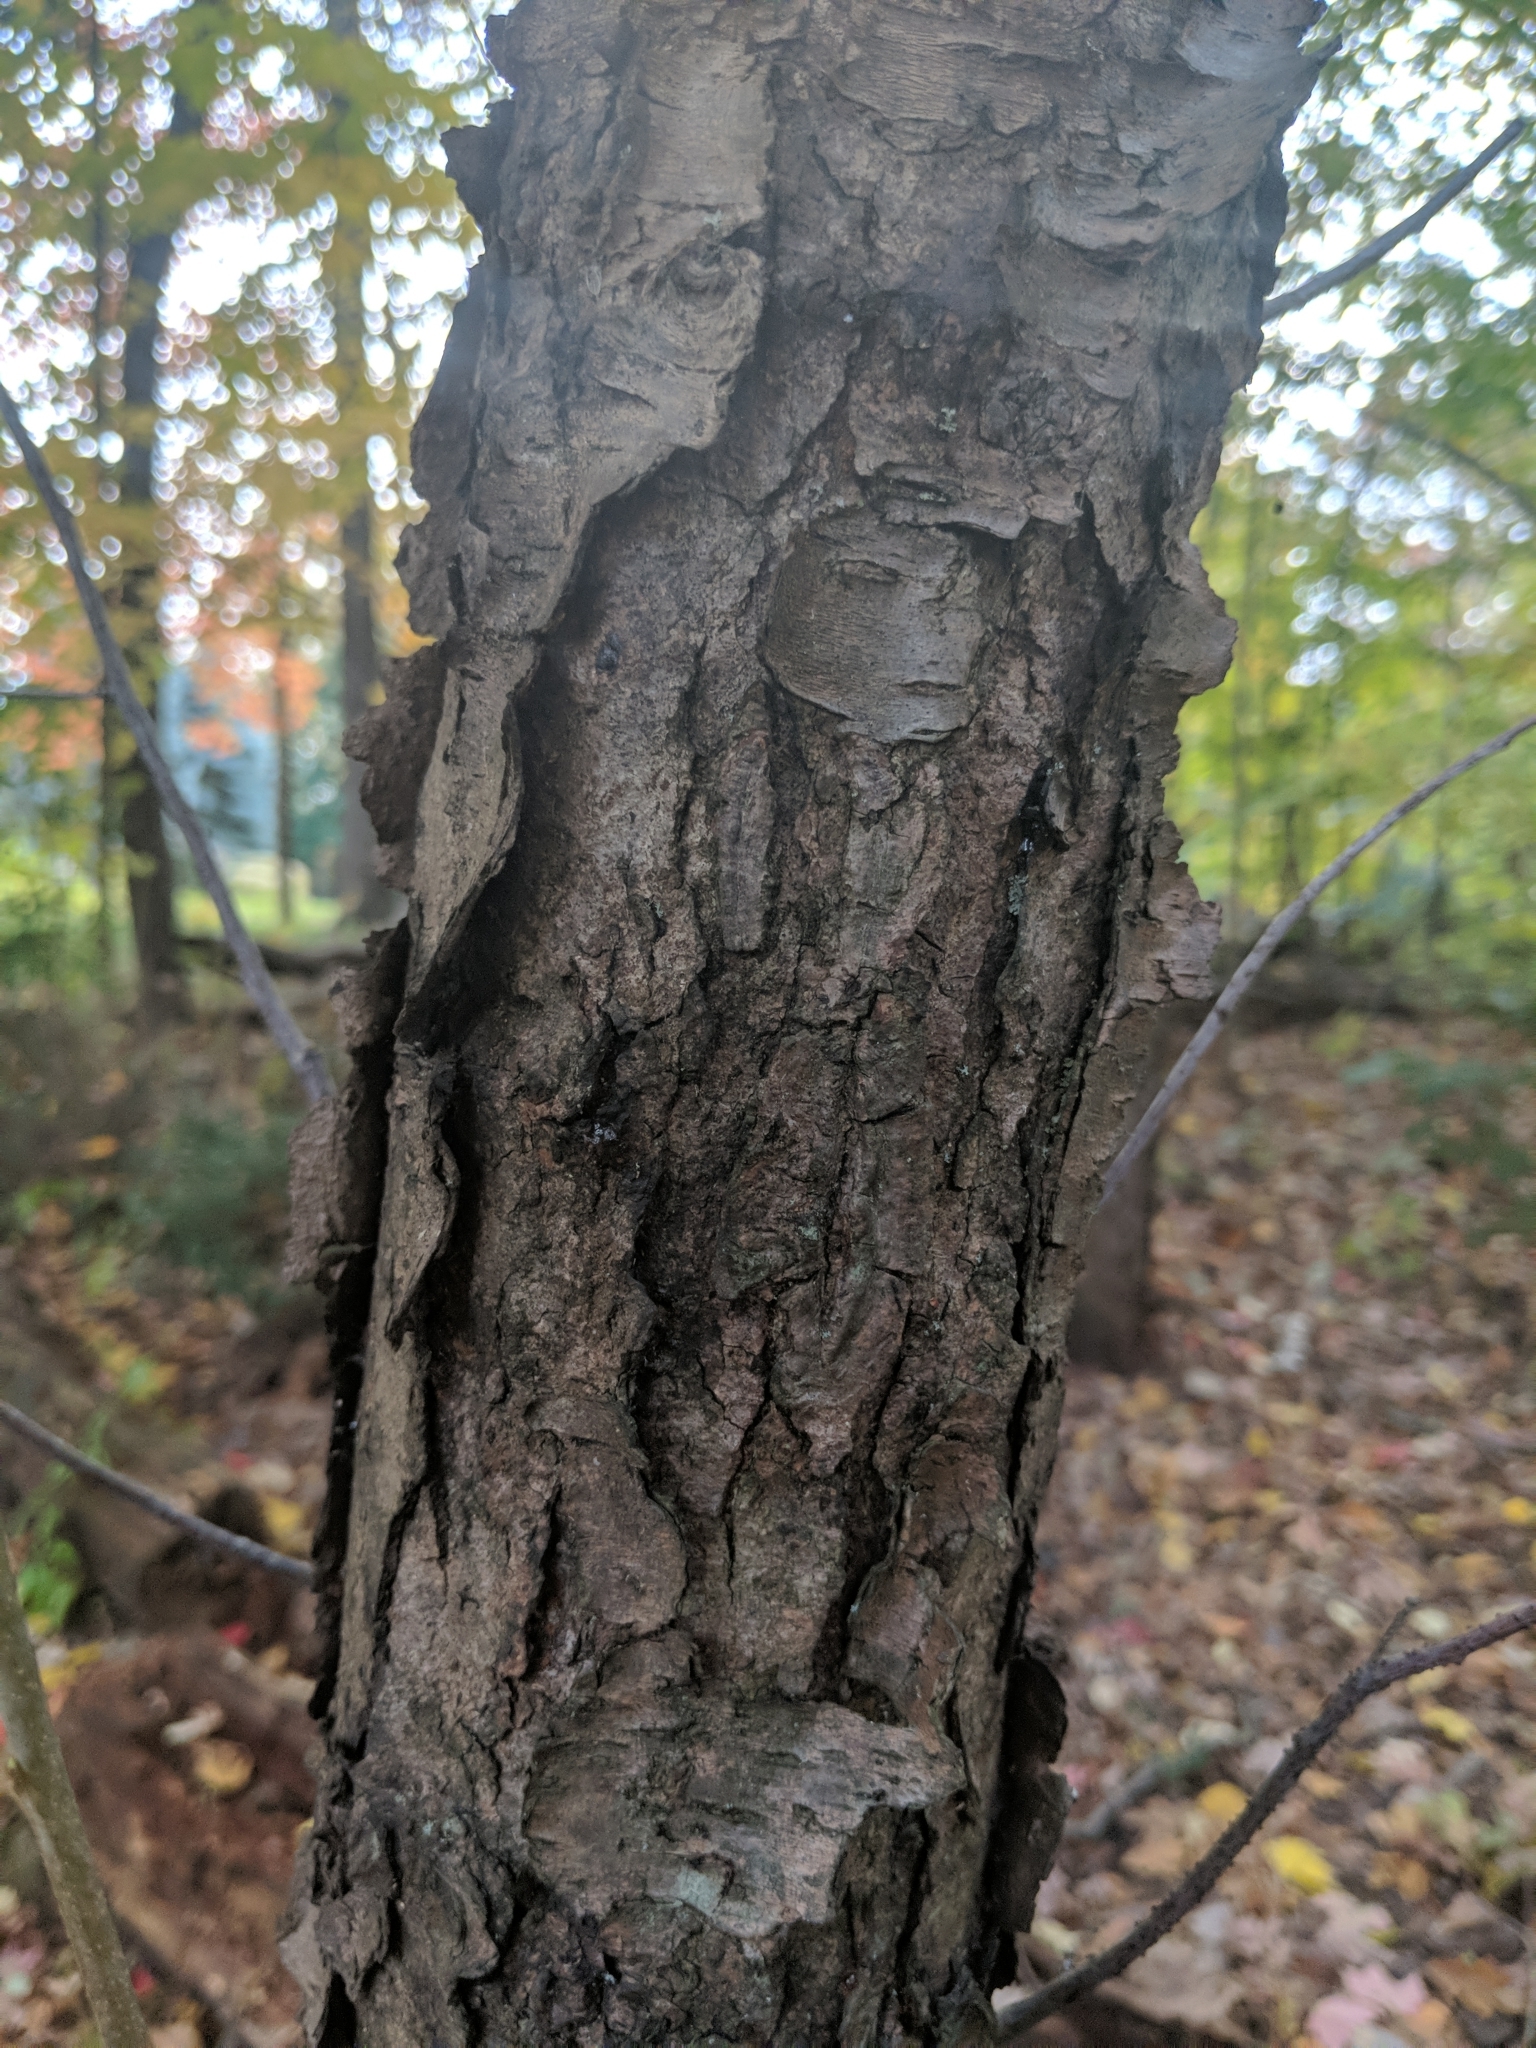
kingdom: Plantae
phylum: Tracheophyta
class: Magnoliopsida
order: Rosales
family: Rosaceae
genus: Prunus
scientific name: Prunus serotina
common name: Black cherry
